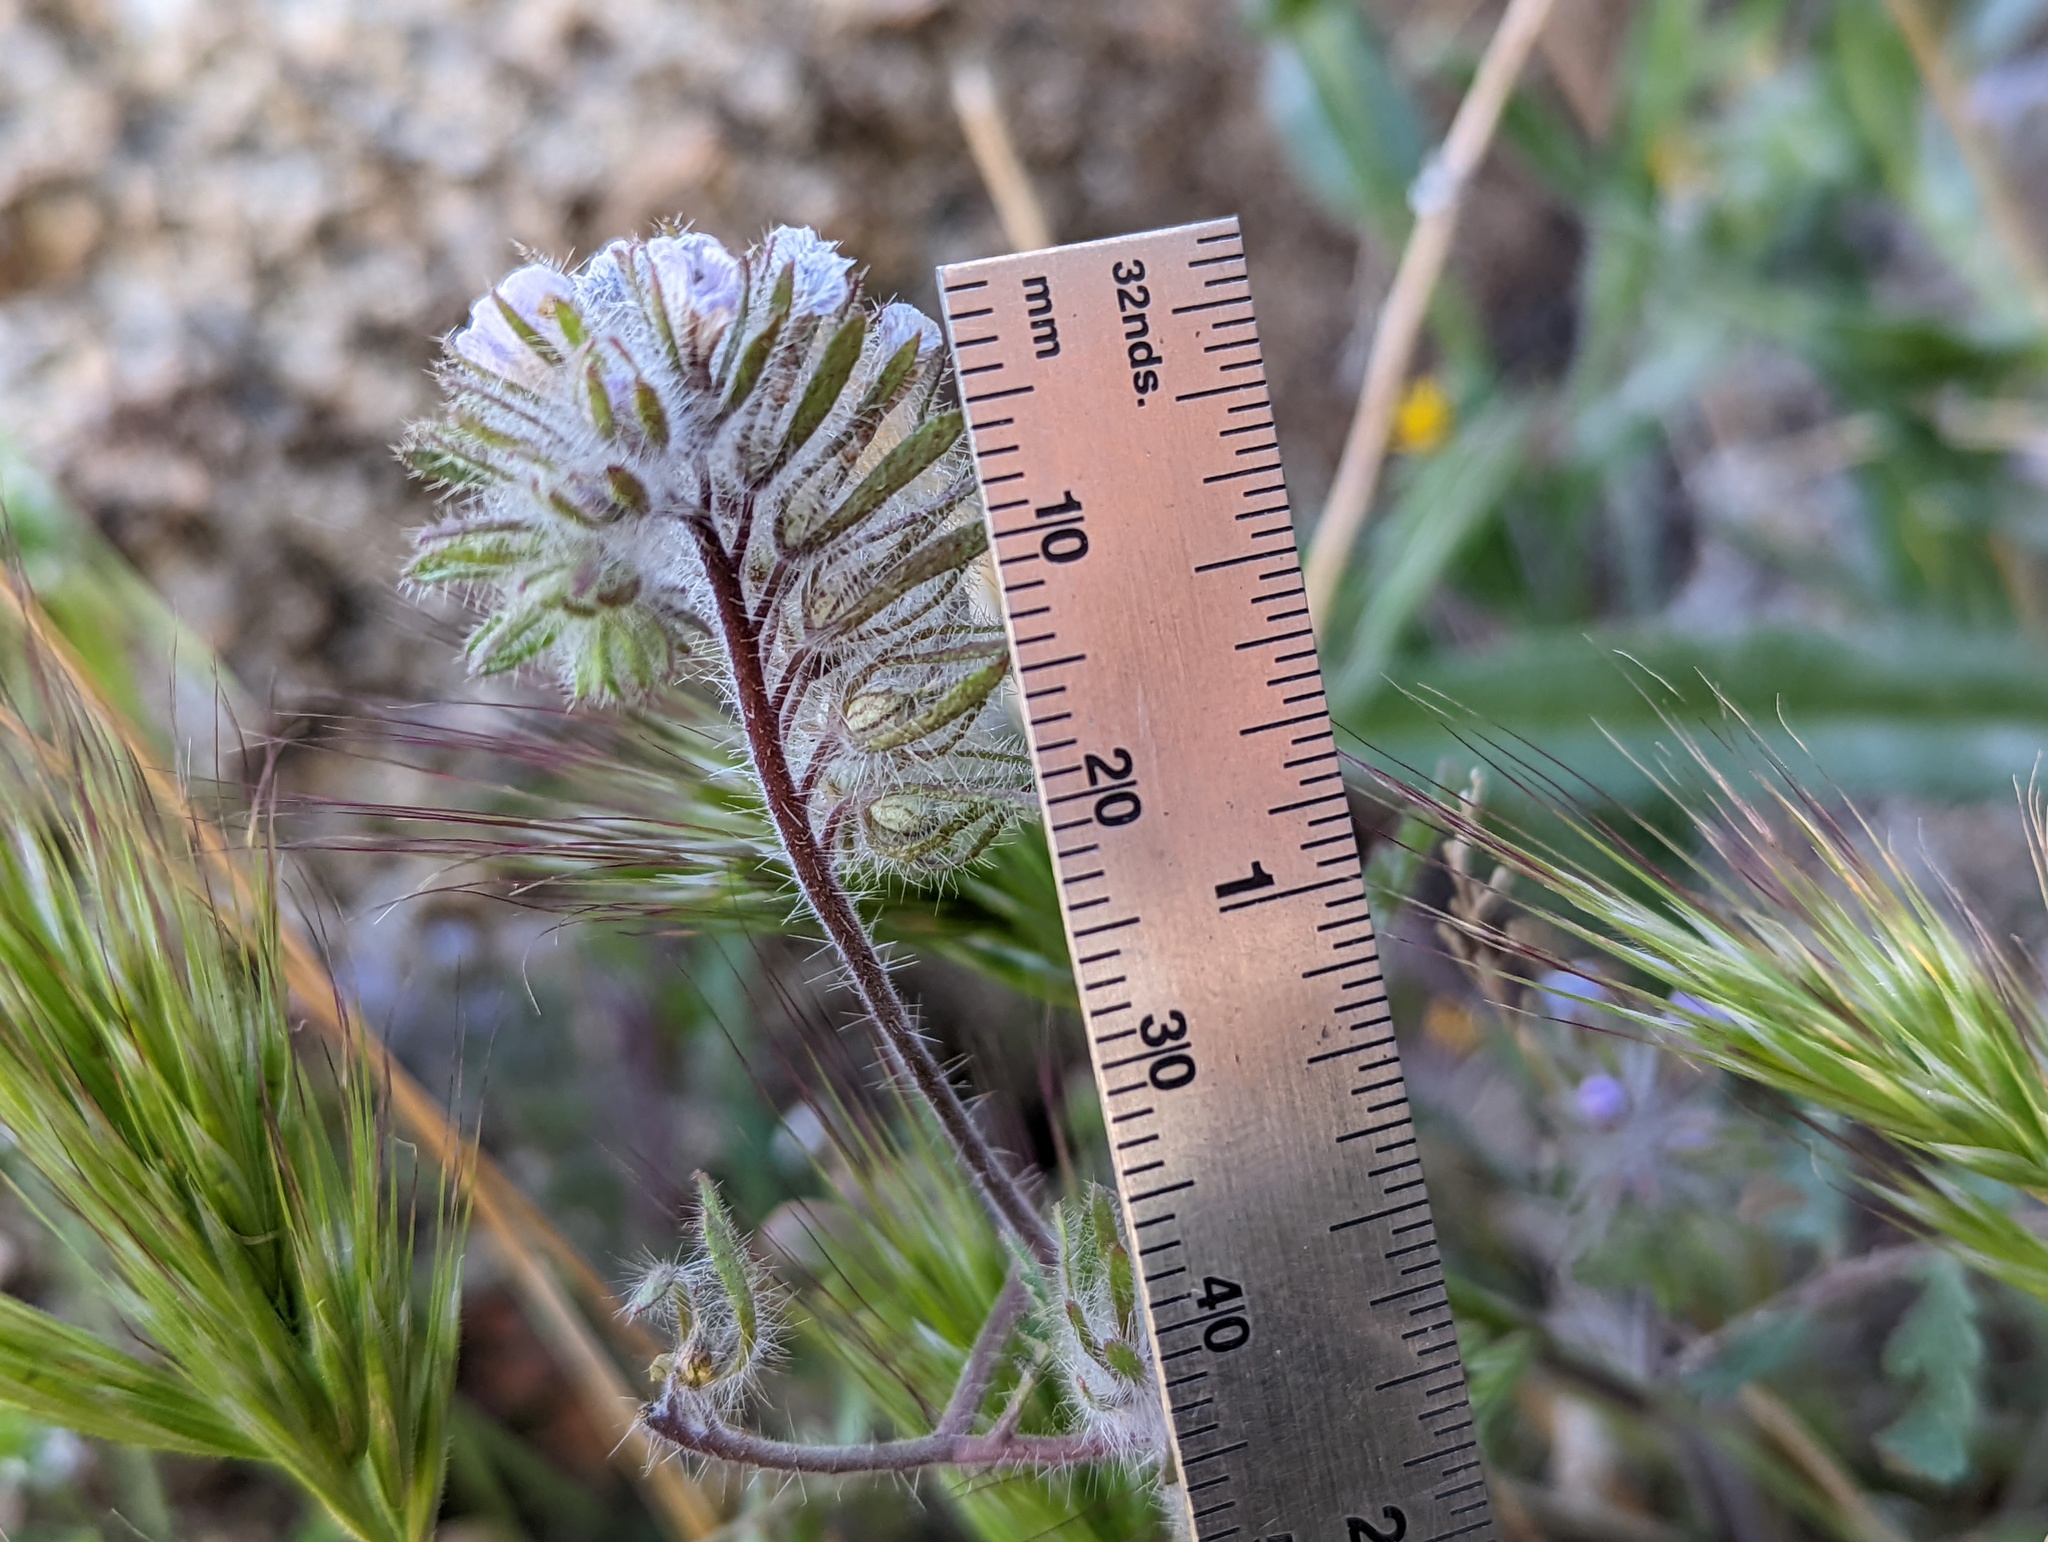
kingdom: Plantae
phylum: Tracheophyta
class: Magnoliopsida
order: Boraginales
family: Hydrophyllaceae
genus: Phacelia
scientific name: Phacelia cryptantha
